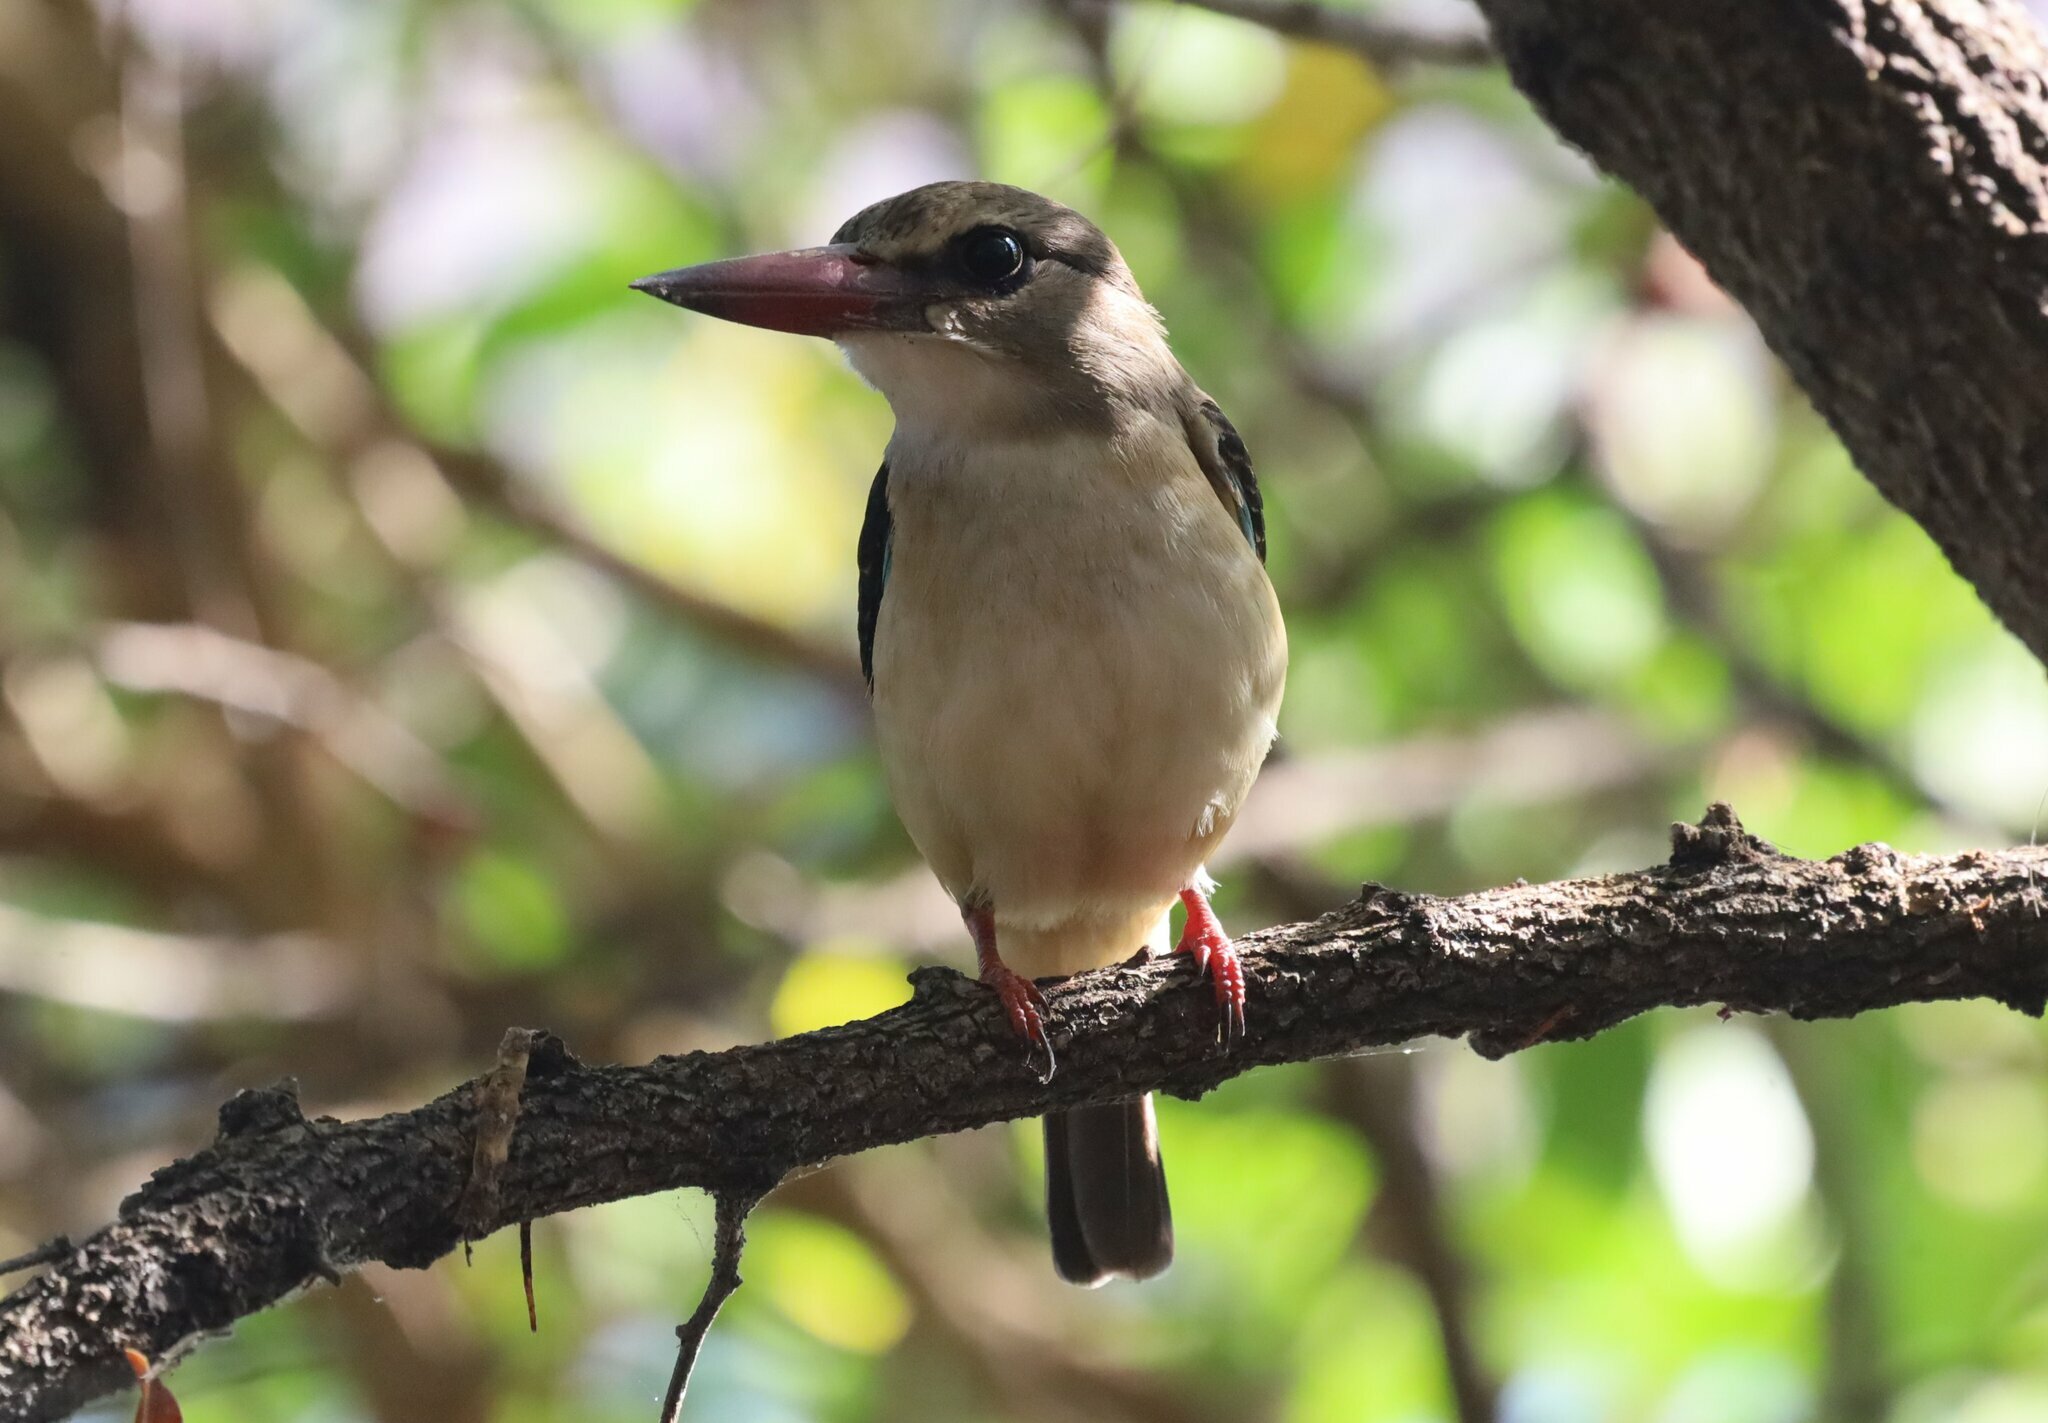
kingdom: Animalia
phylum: Chordata
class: Aves
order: Coraciiformes
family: Alcedinidae
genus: Halcyon
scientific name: Halcyon albiventris
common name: Brown-hooded kingfisher
